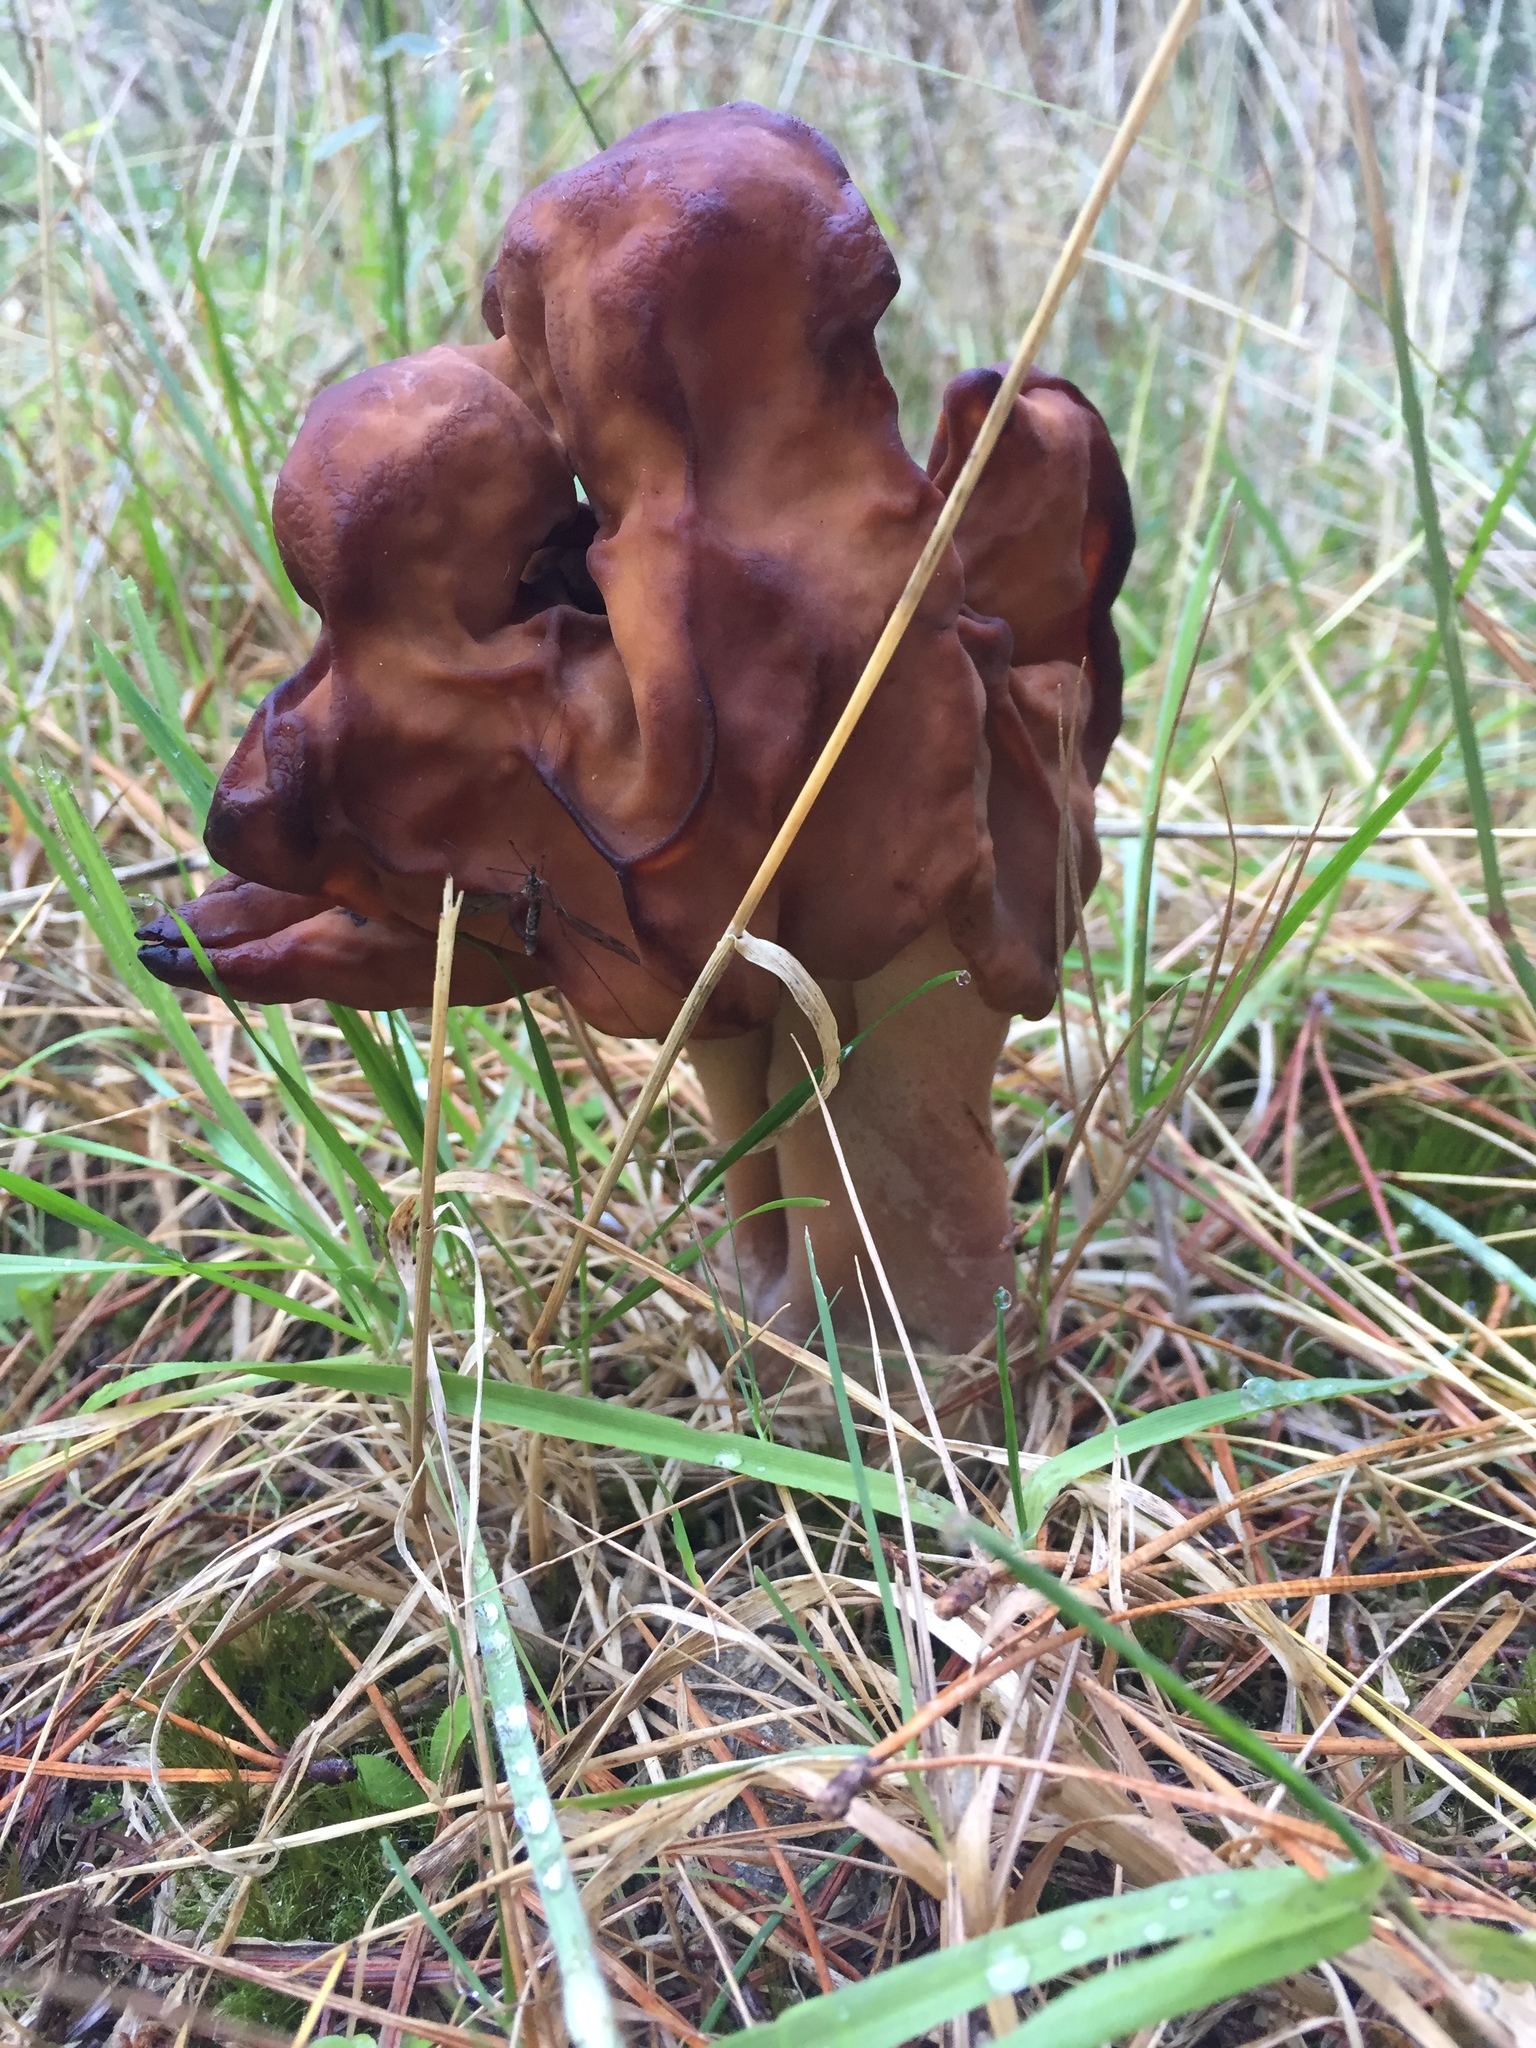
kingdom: Fungi
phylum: Ascomycota
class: Pezizomycetes
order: Pezizales
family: Discinaceae
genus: Gyromitra
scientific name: Gyromitra tasmanica
